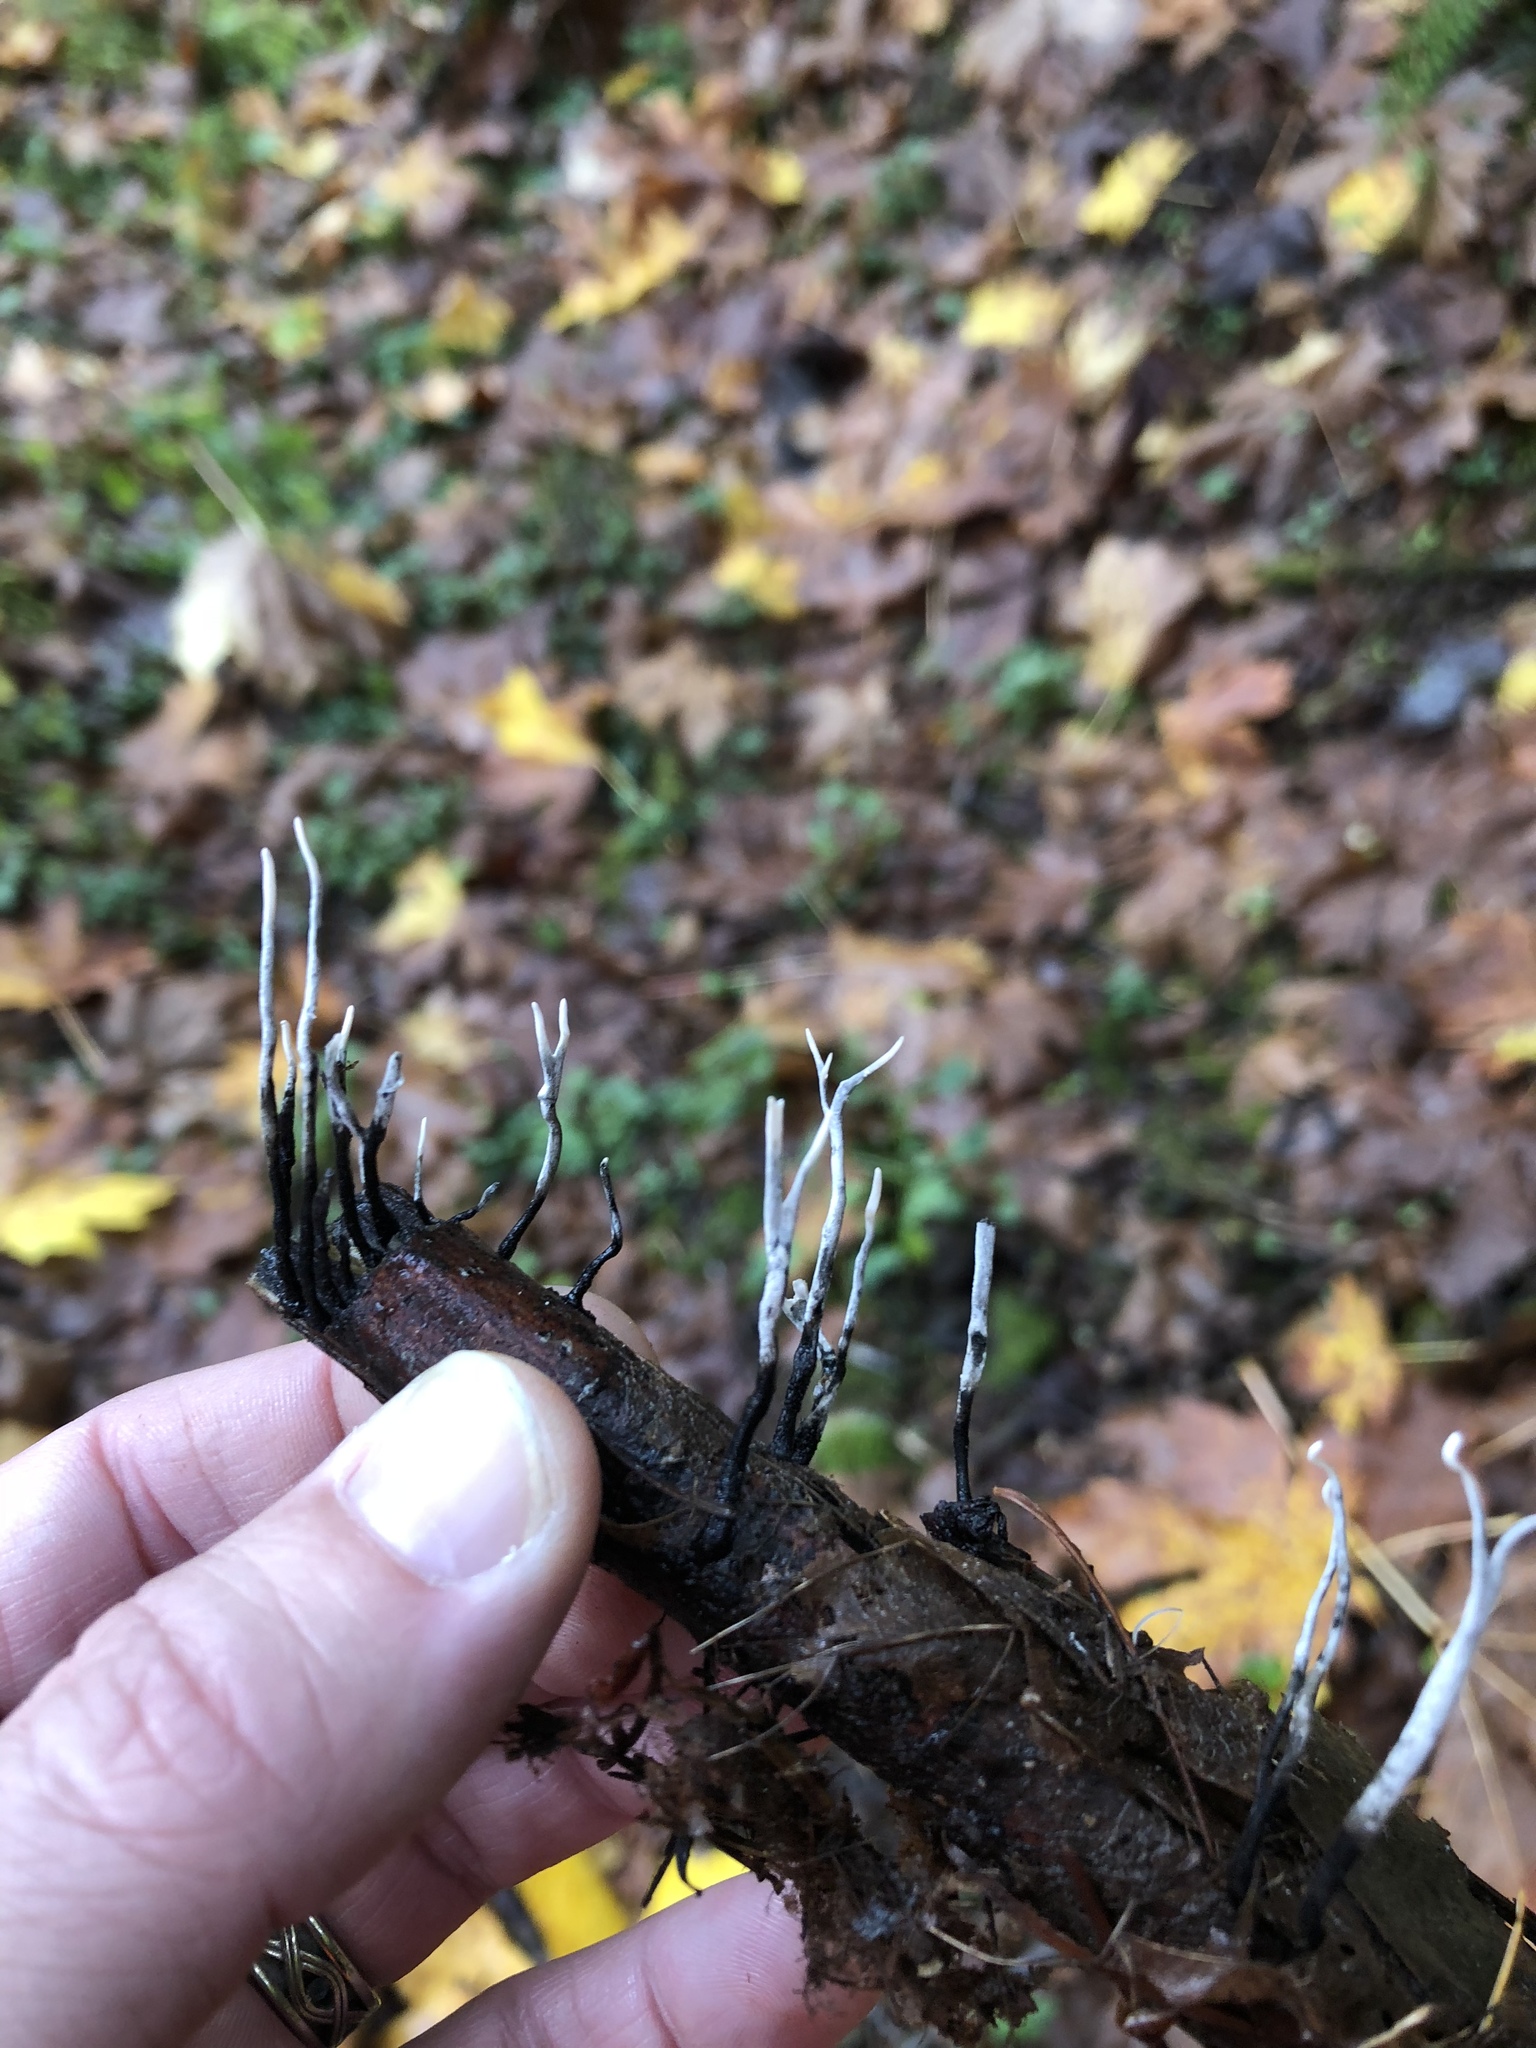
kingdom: Fungi
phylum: Ascomycota
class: Sordariomycetes
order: Xylariales
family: Xylariaceae
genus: Xylaria
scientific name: Xylaria hypoxylon
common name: Candle-snuff fungus
